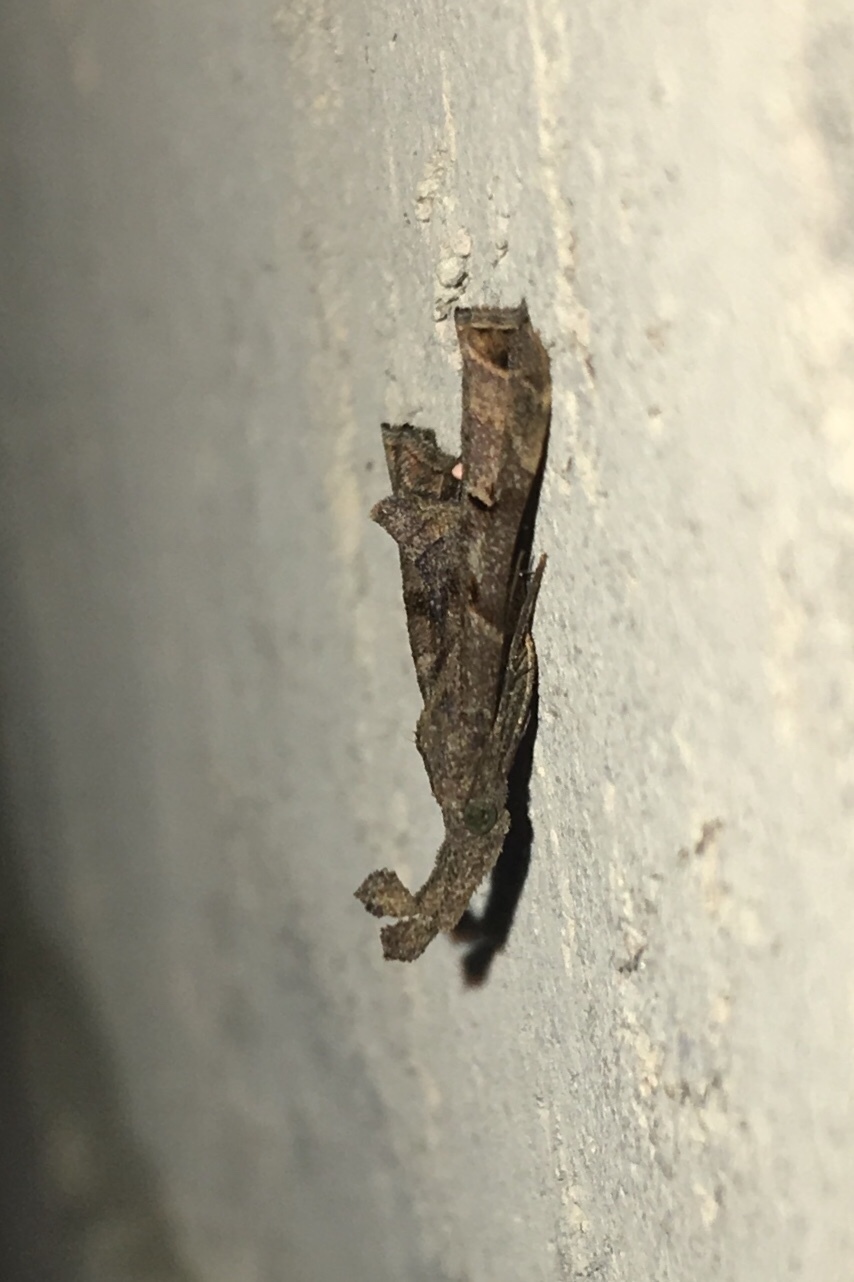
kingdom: Animalia
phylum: Arthropoda
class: Insecta
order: Lepidoptera
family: Erebidae
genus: Palthis
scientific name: Palthis asopialis
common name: Faint-spotted palthis moth
